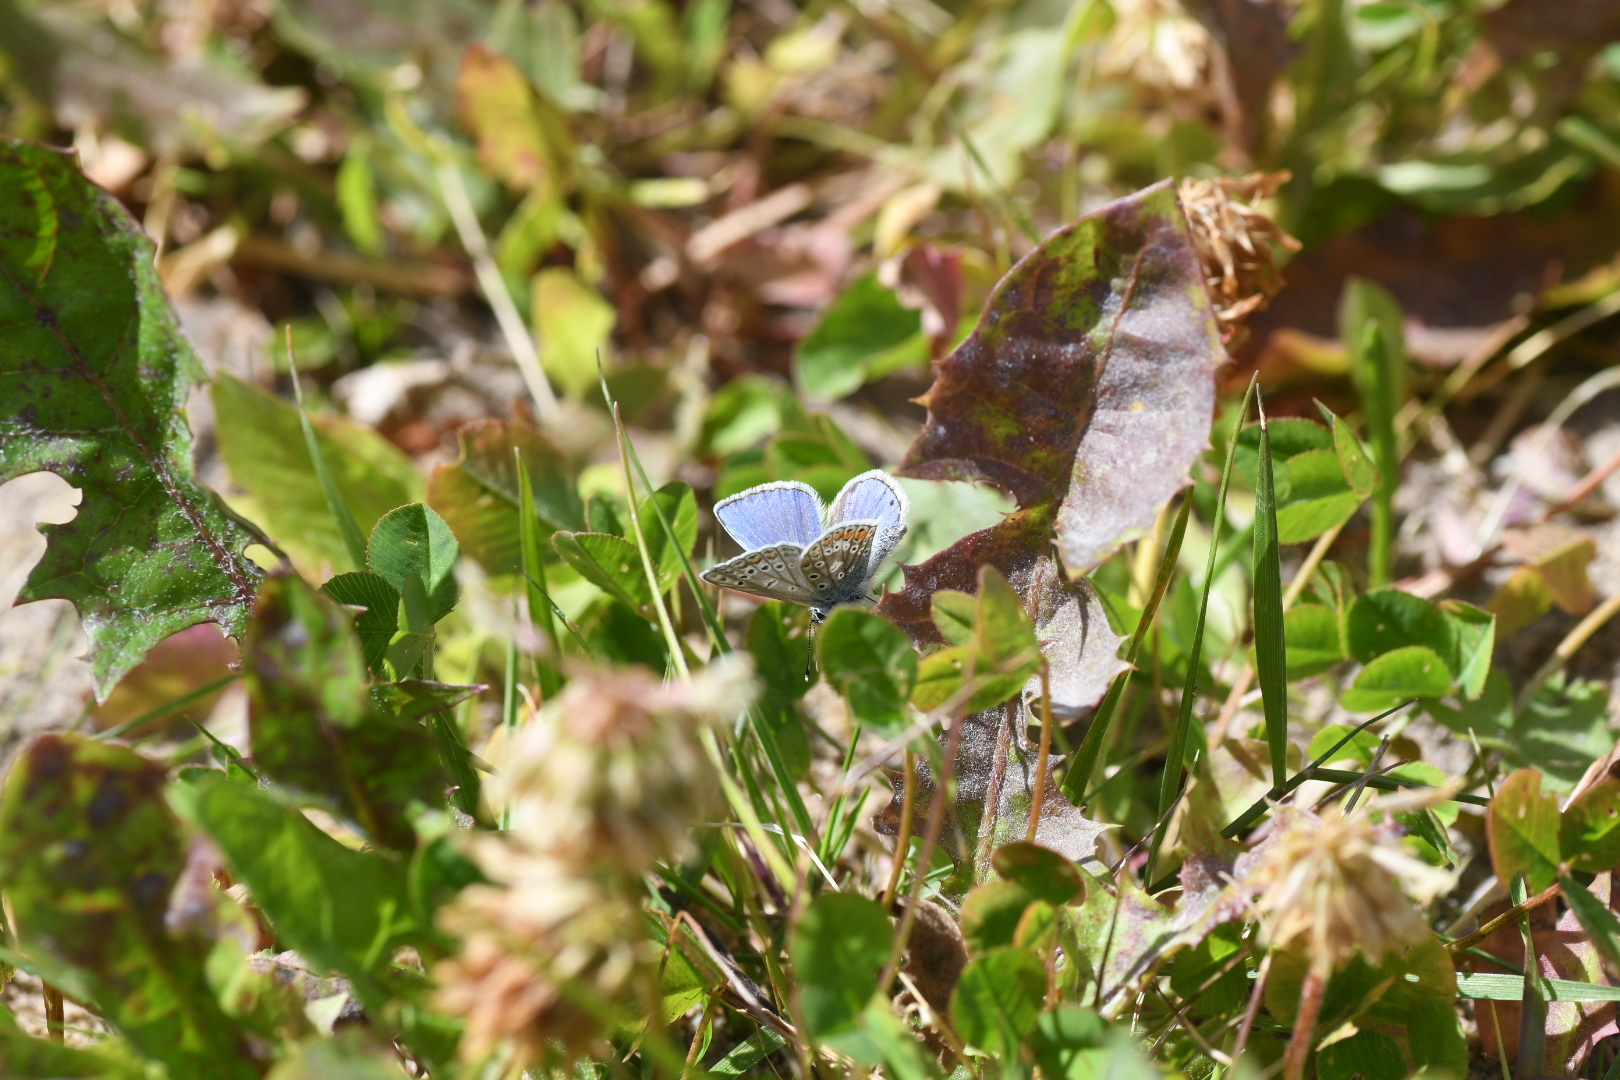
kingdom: Animalia
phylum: Arthropoda
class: Insecta
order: Lepidoptera
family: Lycaenidae
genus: Polyommatus
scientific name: Polyommatus icarus
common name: Common blue
